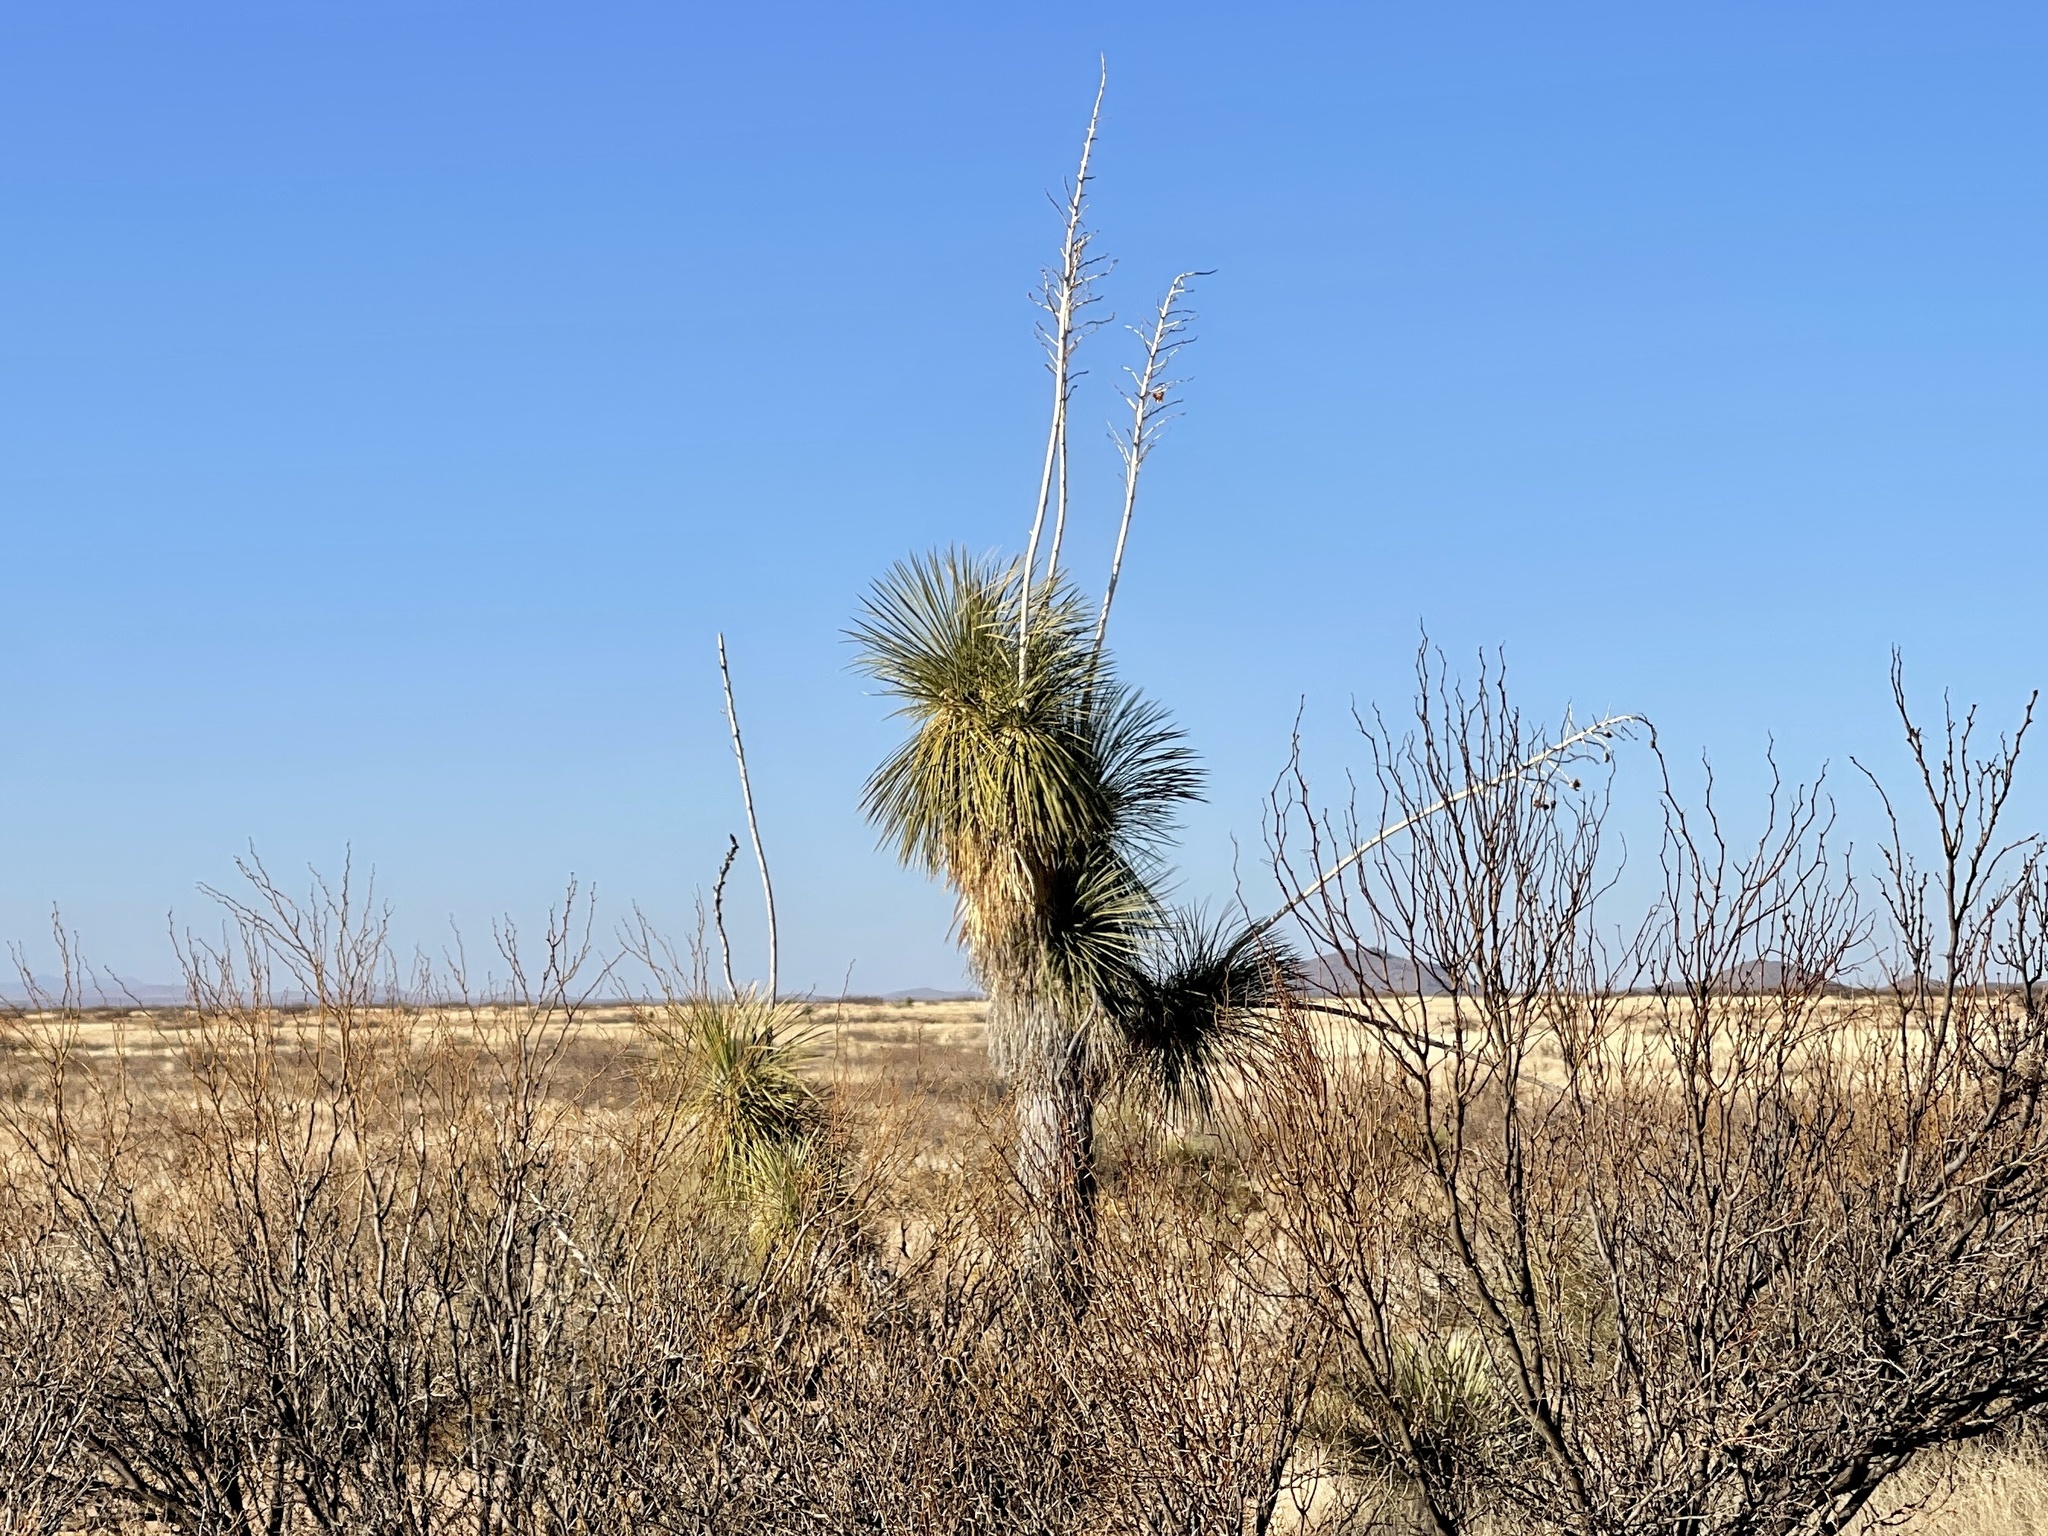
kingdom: Plantae
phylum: Tracheophyta
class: Liliopsida
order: Asparagales
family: Asparagaceae
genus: Yucca
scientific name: Yucca elata
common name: Palmella
